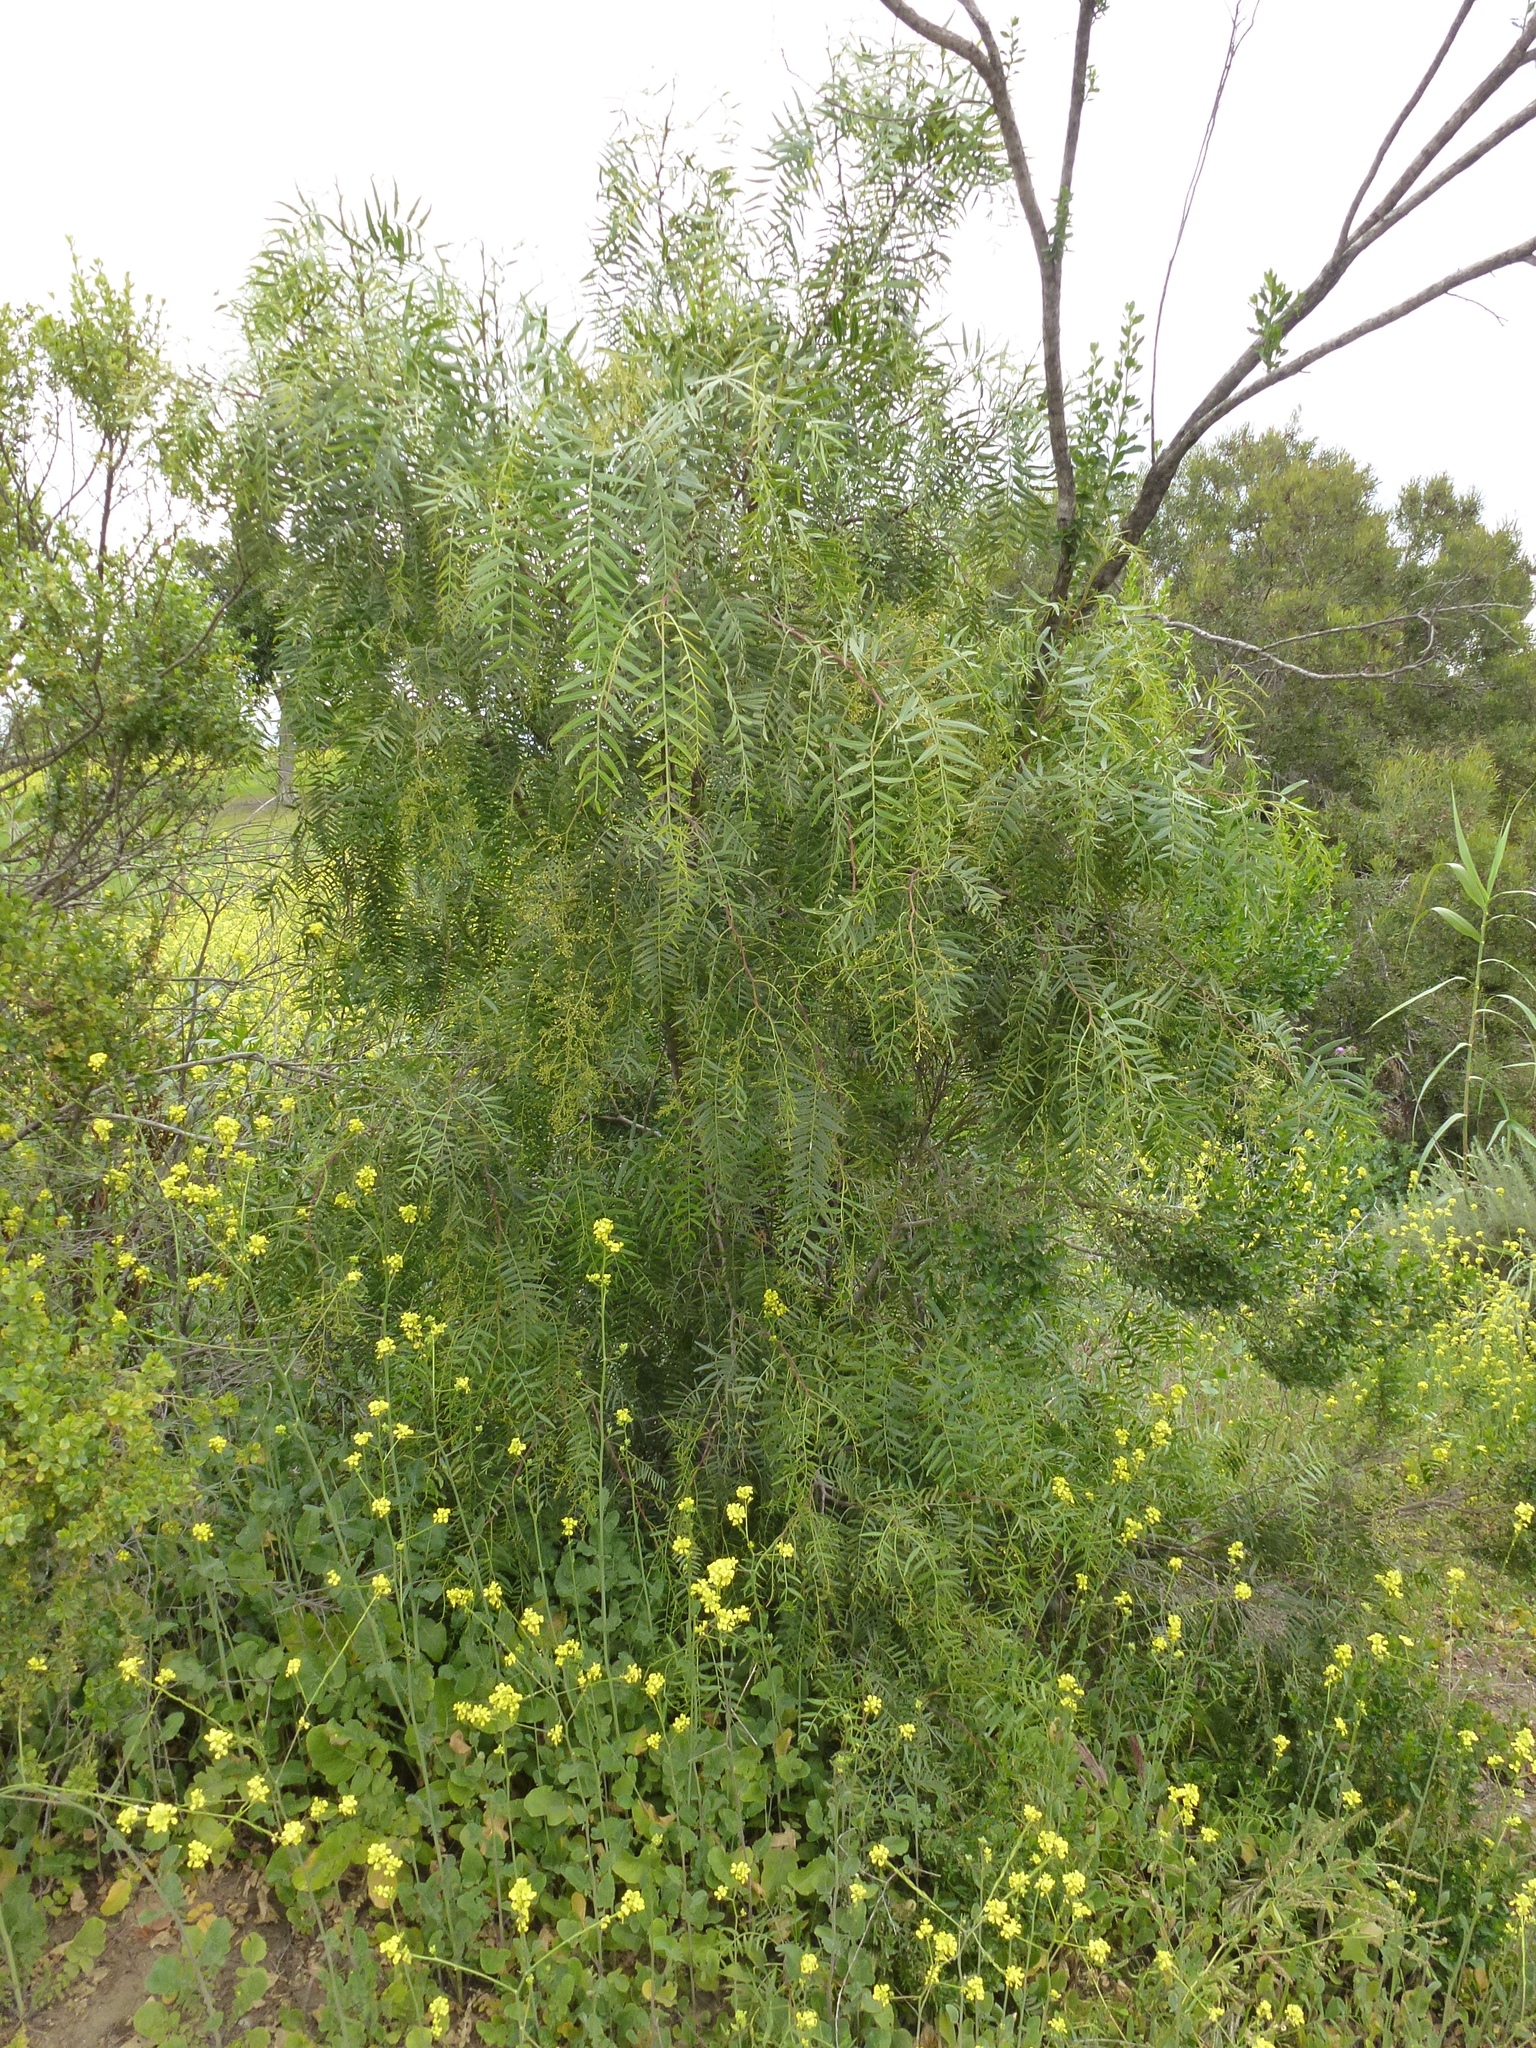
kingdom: Plantae
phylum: Tracheophyta
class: Magnoliopsida
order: Sapindales
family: Anacardiaceae
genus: Schinus
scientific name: Schinus molle
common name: Peruvian peppertree
